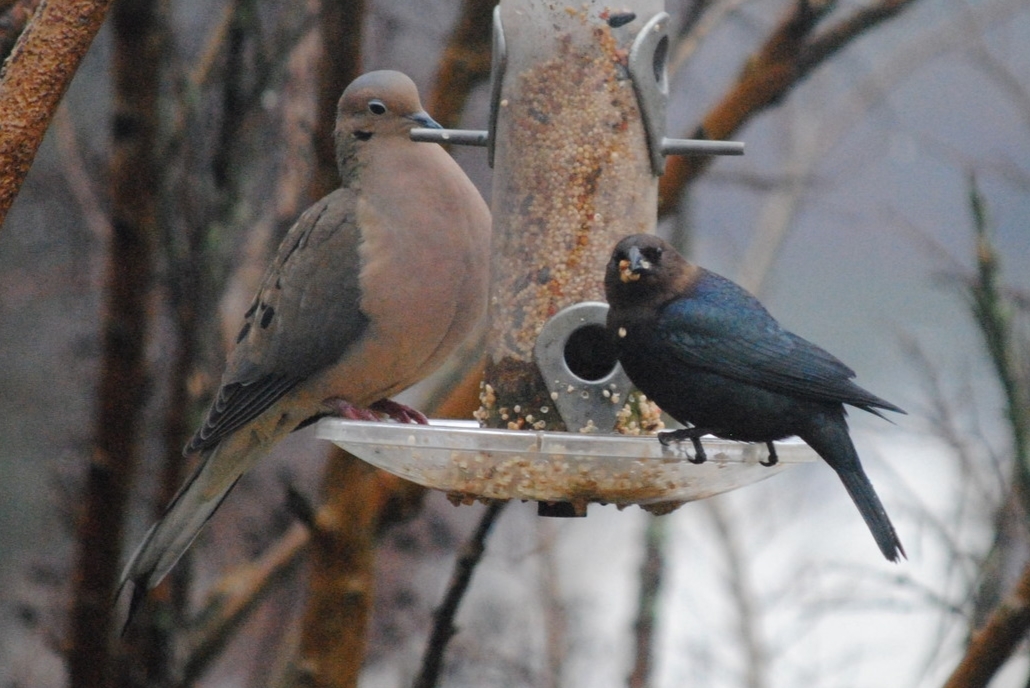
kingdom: Animalia
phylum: Chordata
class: Aves
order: Columbiformes
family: Columbidae
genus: Zenaida
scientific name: Zenaida macroura
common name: Mourning dove
